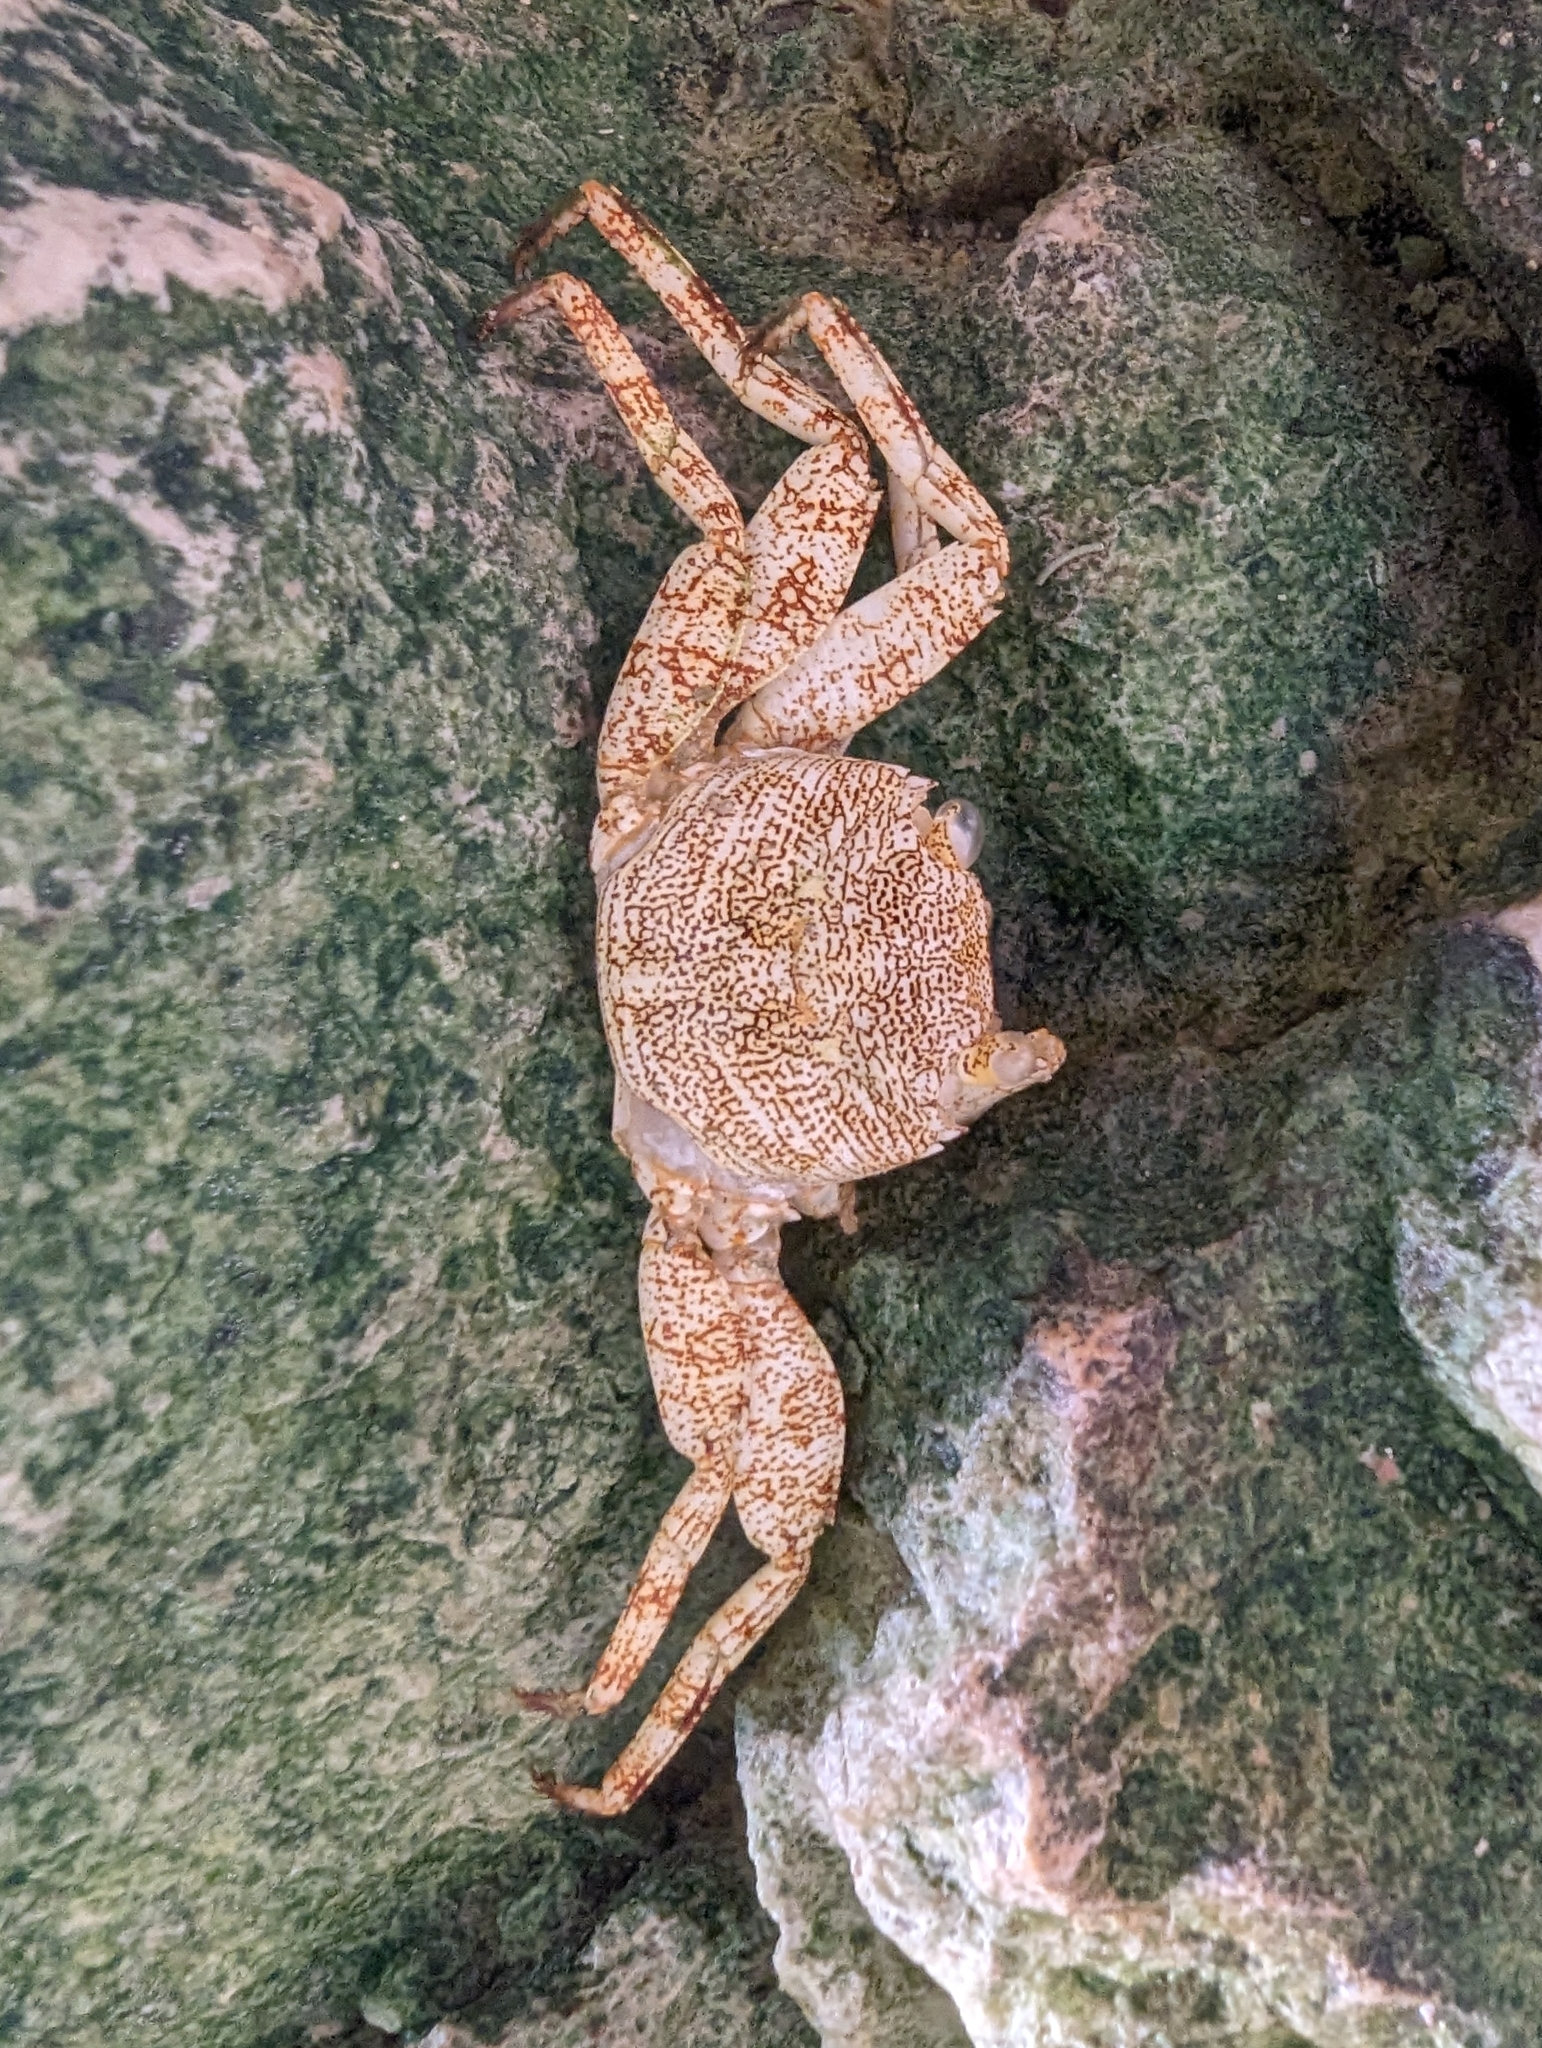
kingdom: Animalia
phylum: Arthropoda
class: Malacostraca
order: Decapoda
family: Grapsidae
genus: Grapsus
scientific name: Grapsus grapsus
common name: Sally lightfoot
